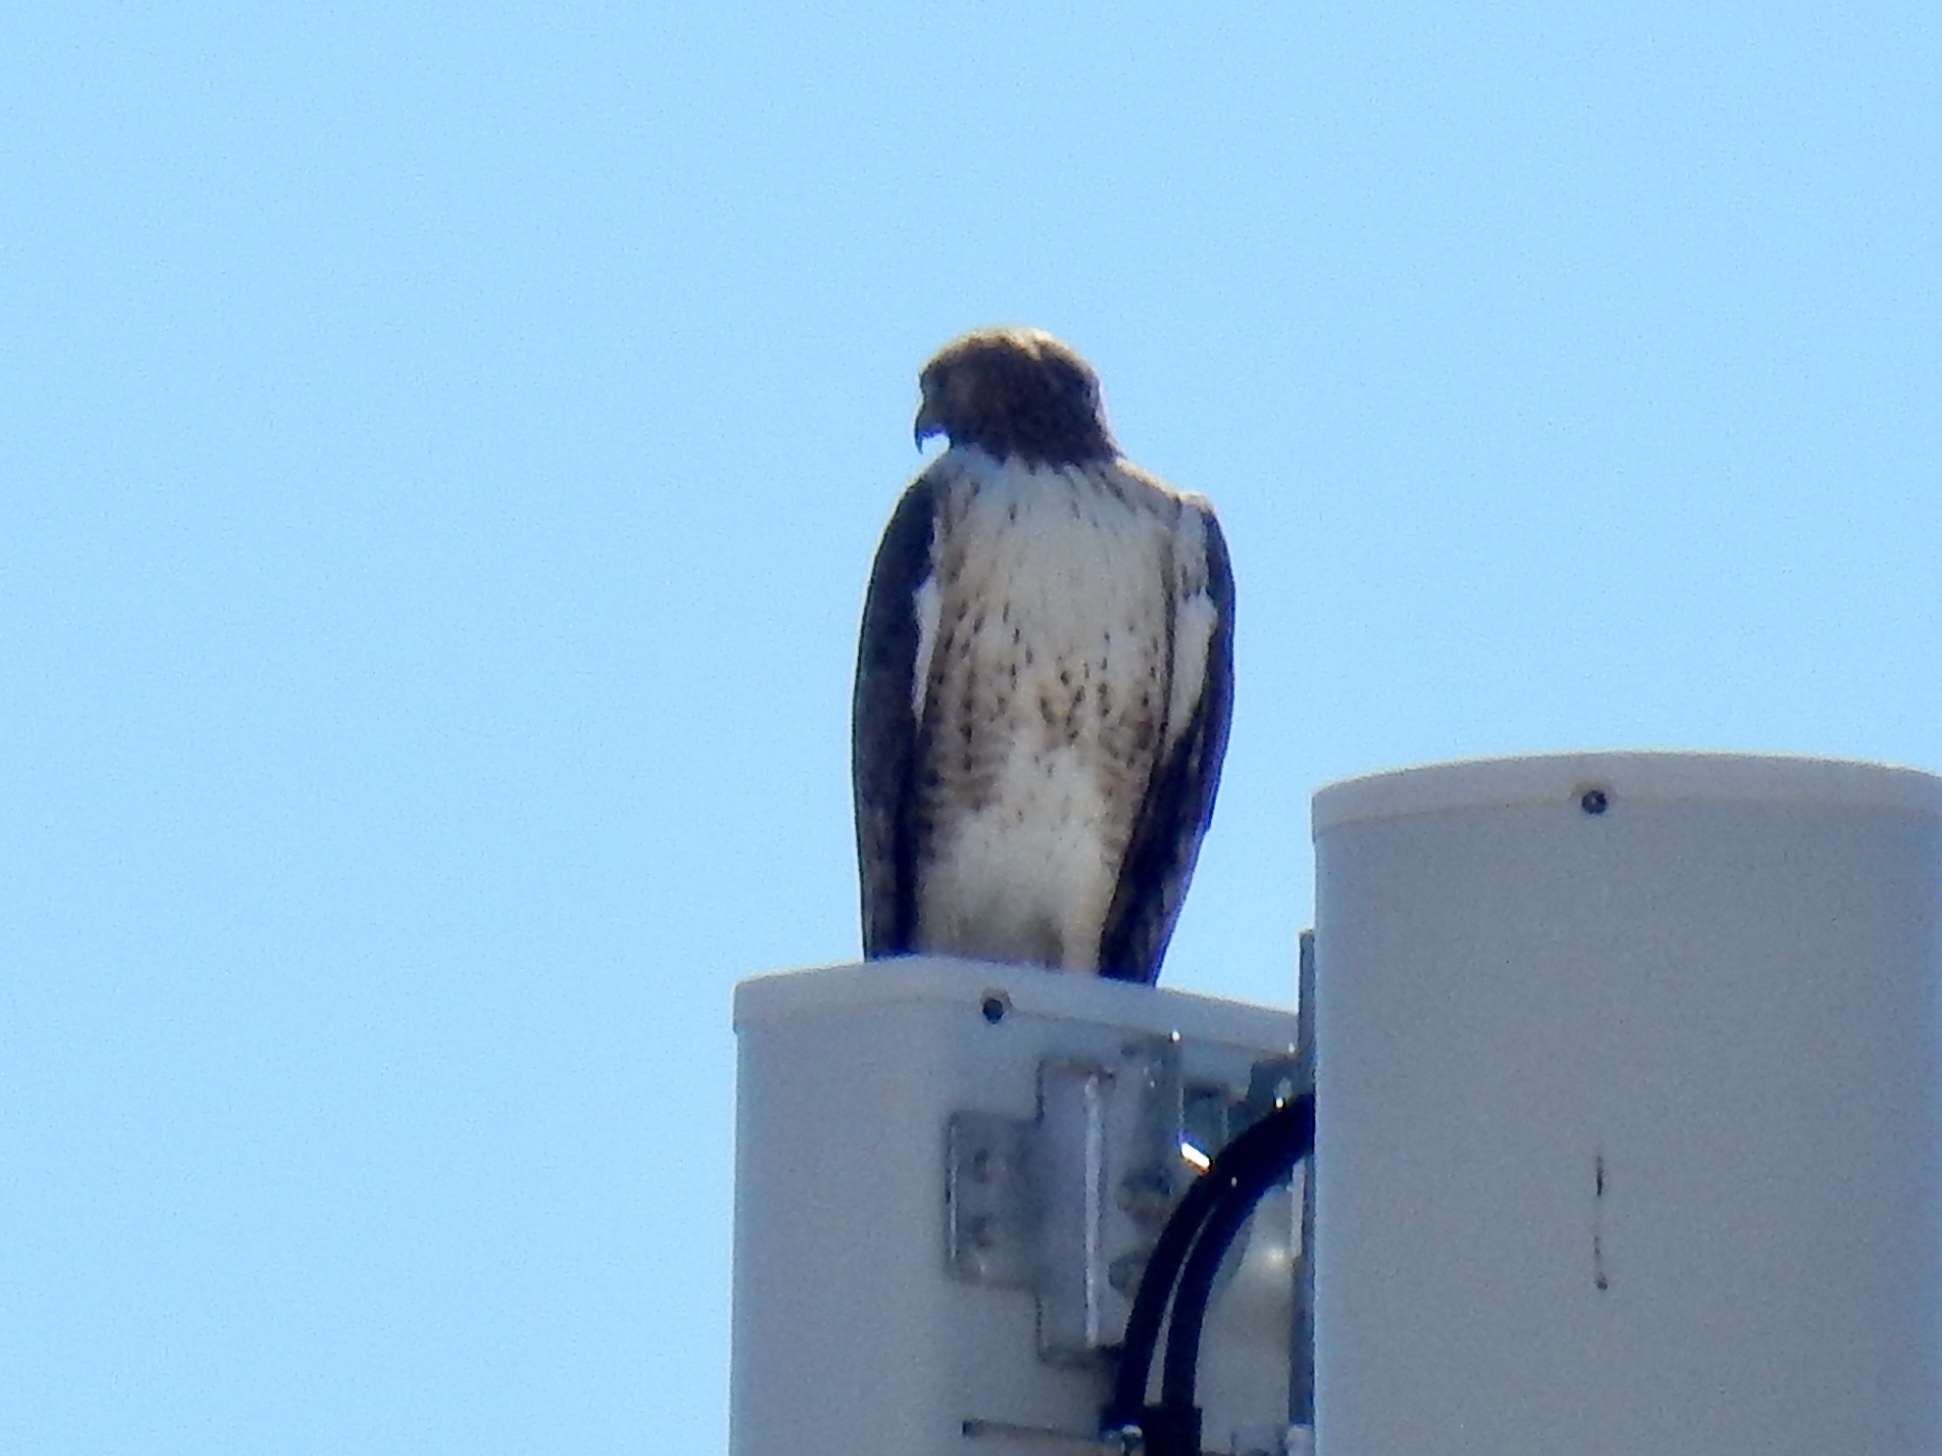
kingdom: Animalia
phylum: Chordata
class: Aves
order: Accipitriformes
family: Accipitridae
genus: Buteo
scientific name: Buteo jamaicensis
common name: Red-tailed hawk
